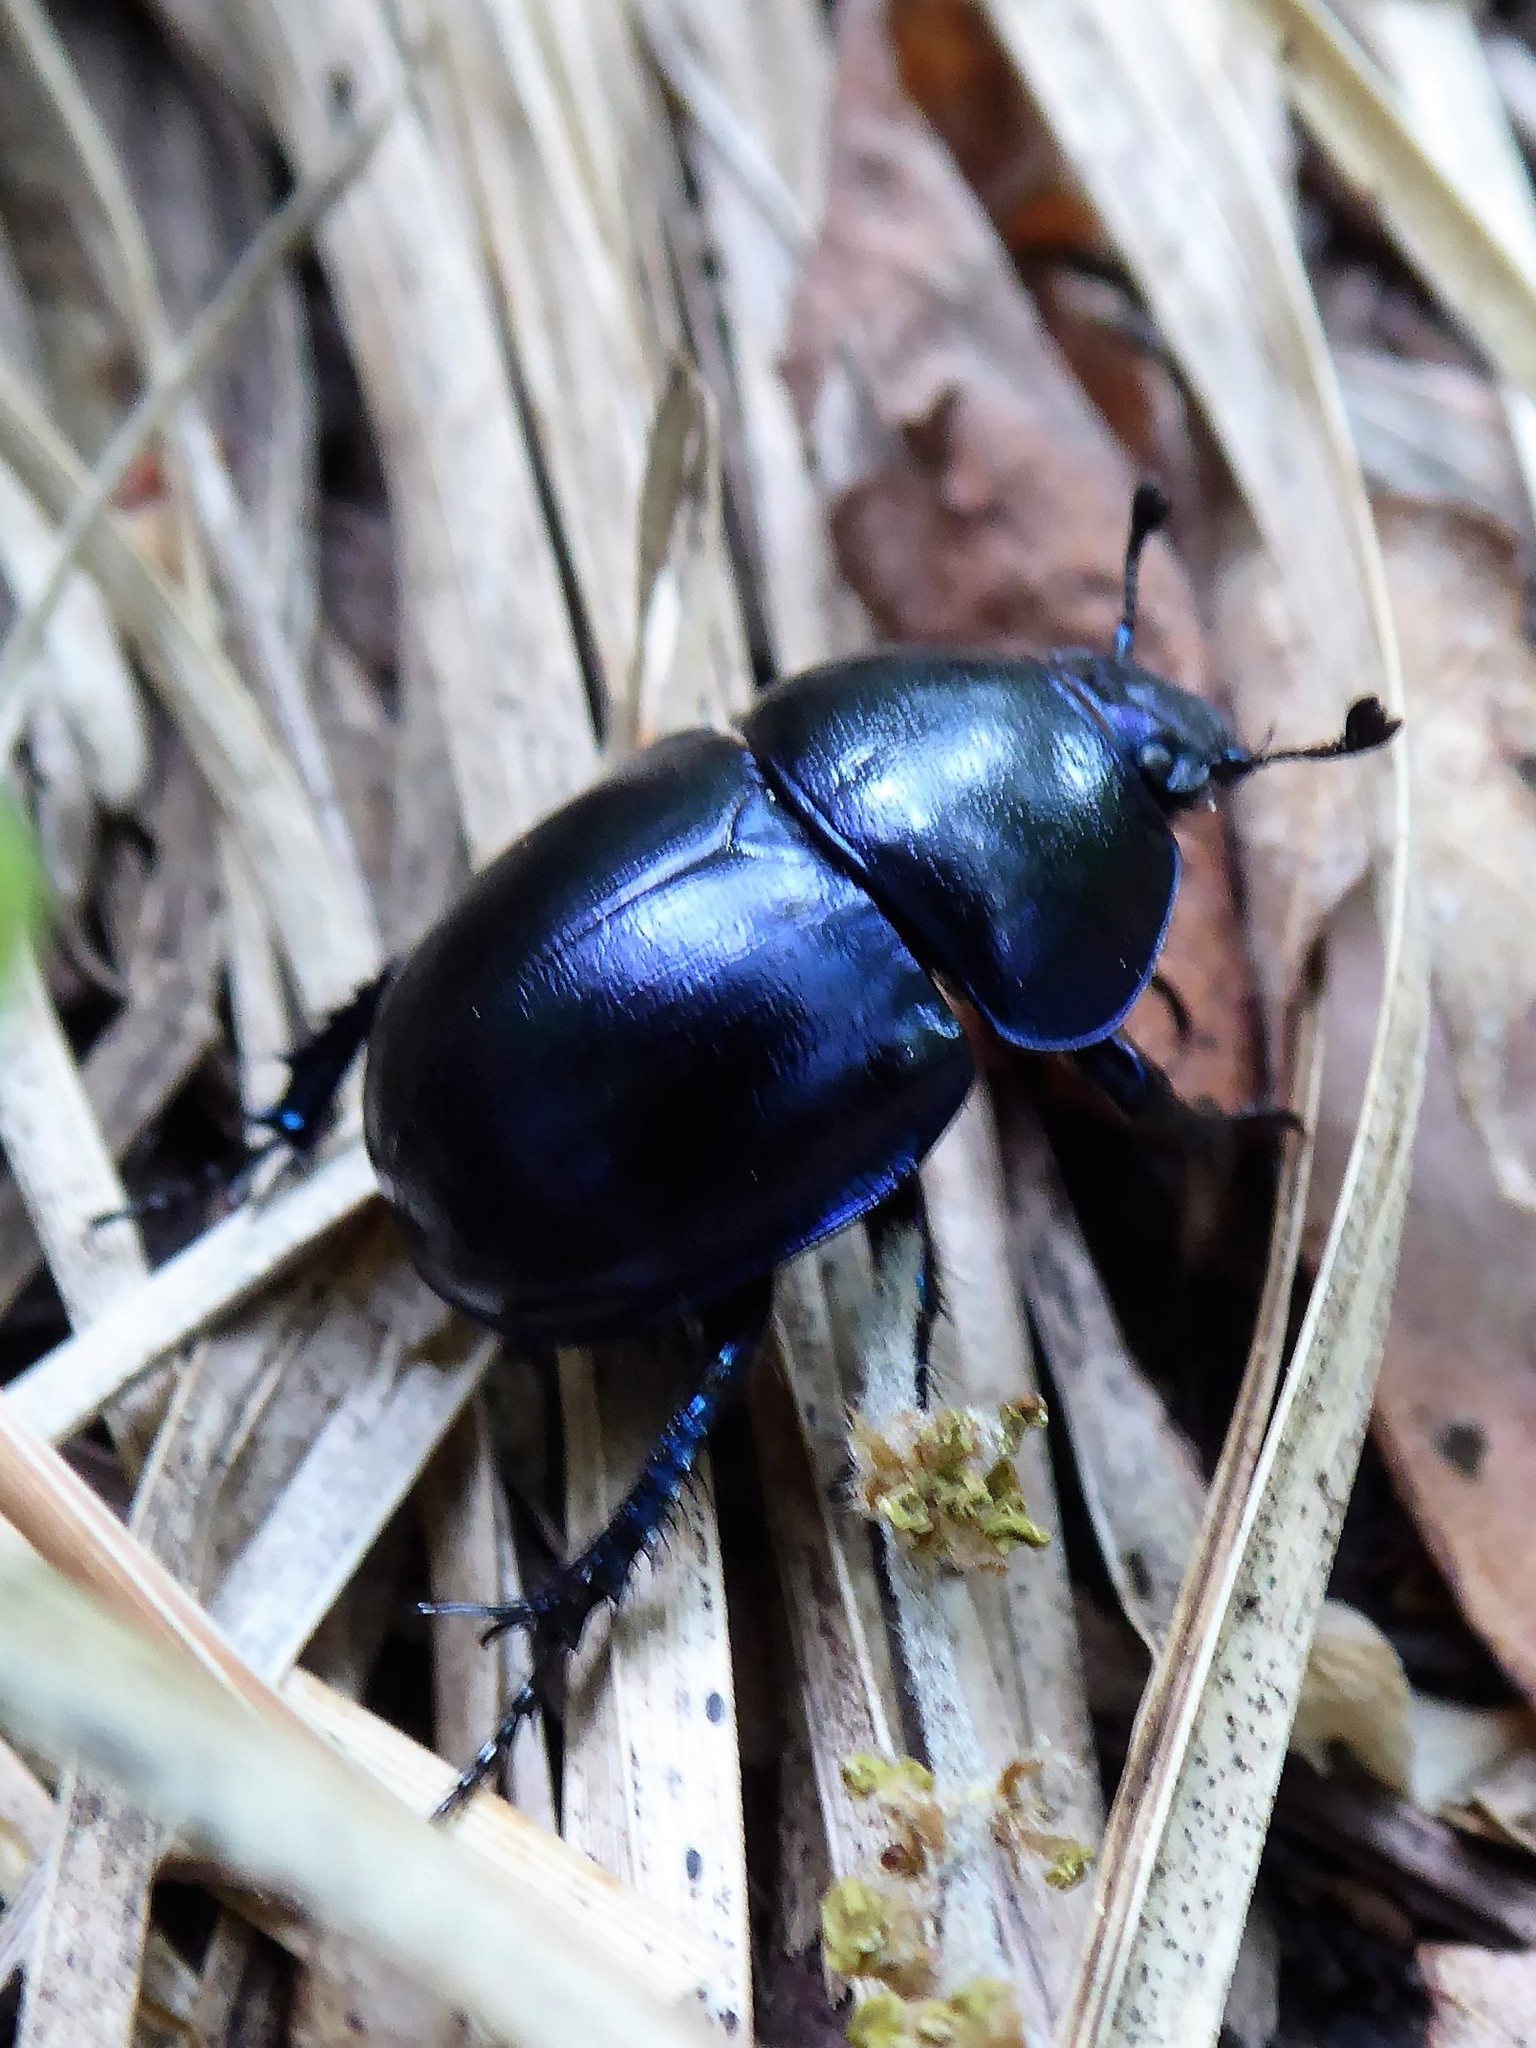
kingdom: Animalia
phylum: Arthropoda
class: Insecta
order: Coleoptera
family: Geotrupidae
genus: Trypocopris
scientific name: Trypocopris vernalis
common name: Spring dumbledor
